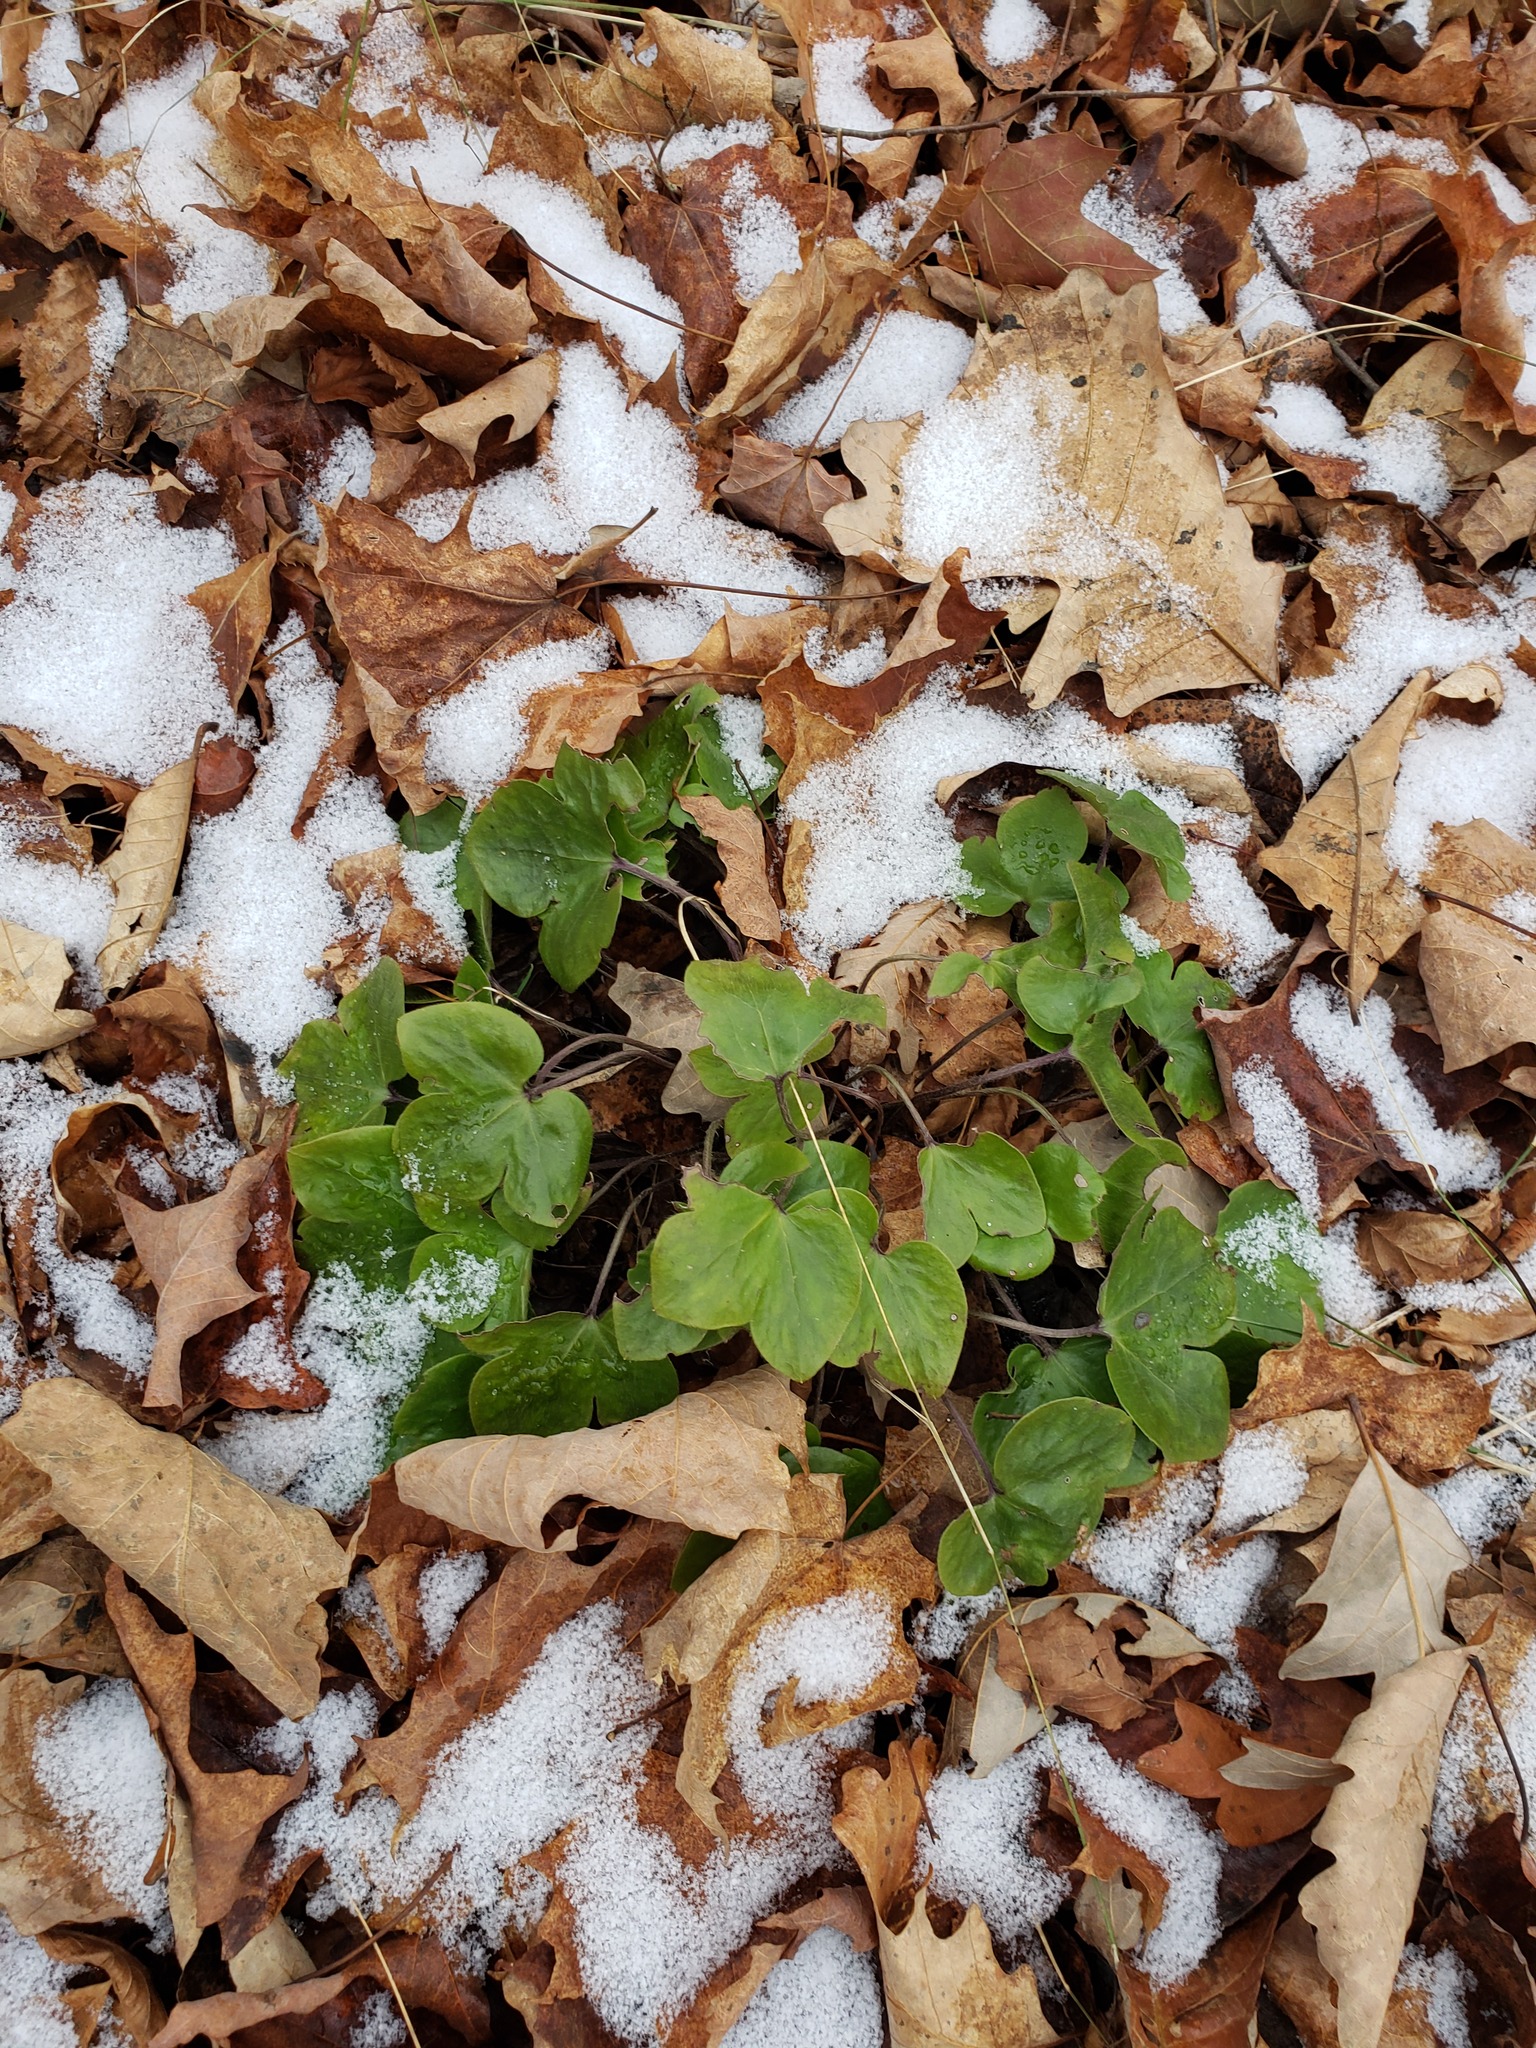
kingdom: Plantae
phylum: Tracheophyta
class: Magnoliopsida
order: Ranunculales
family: Ranunculaceae
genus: Hepatica
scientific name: Hepatica acutiloba
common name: Sharp-lobed hepatica
